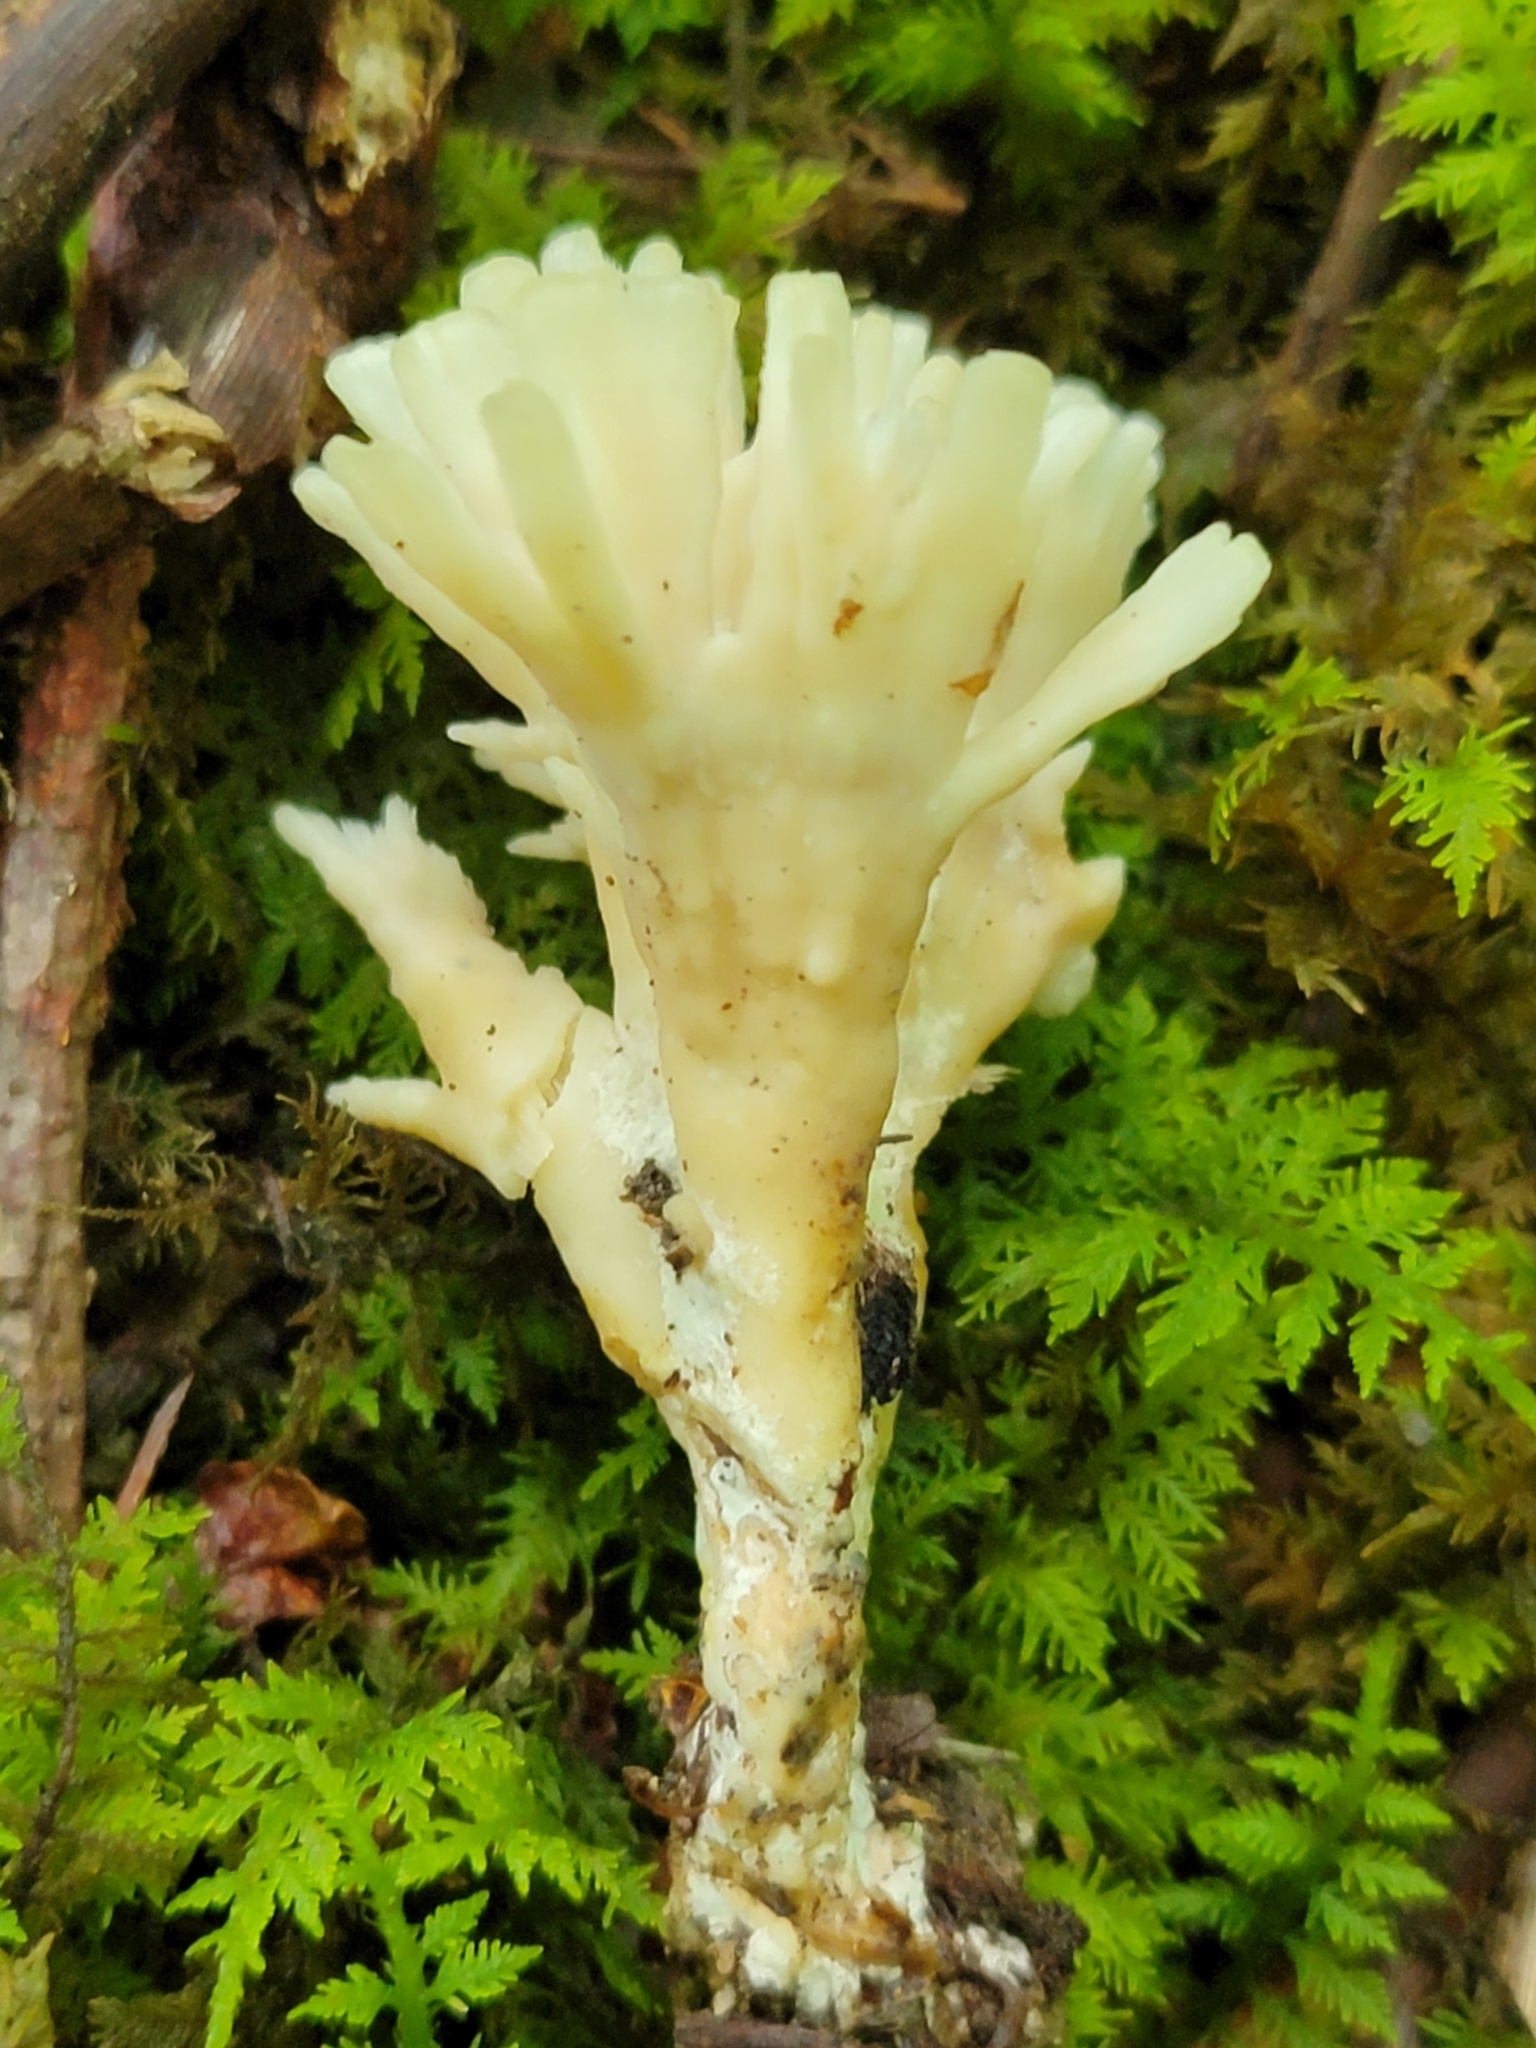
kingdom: Fungi
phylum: Basidiomycota
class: Agaricomycetes
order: Sebacinales
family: Sebacinaceae
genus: Sebacina
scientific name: Sebacina schweinitzii
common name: Jellied false coral fungus
